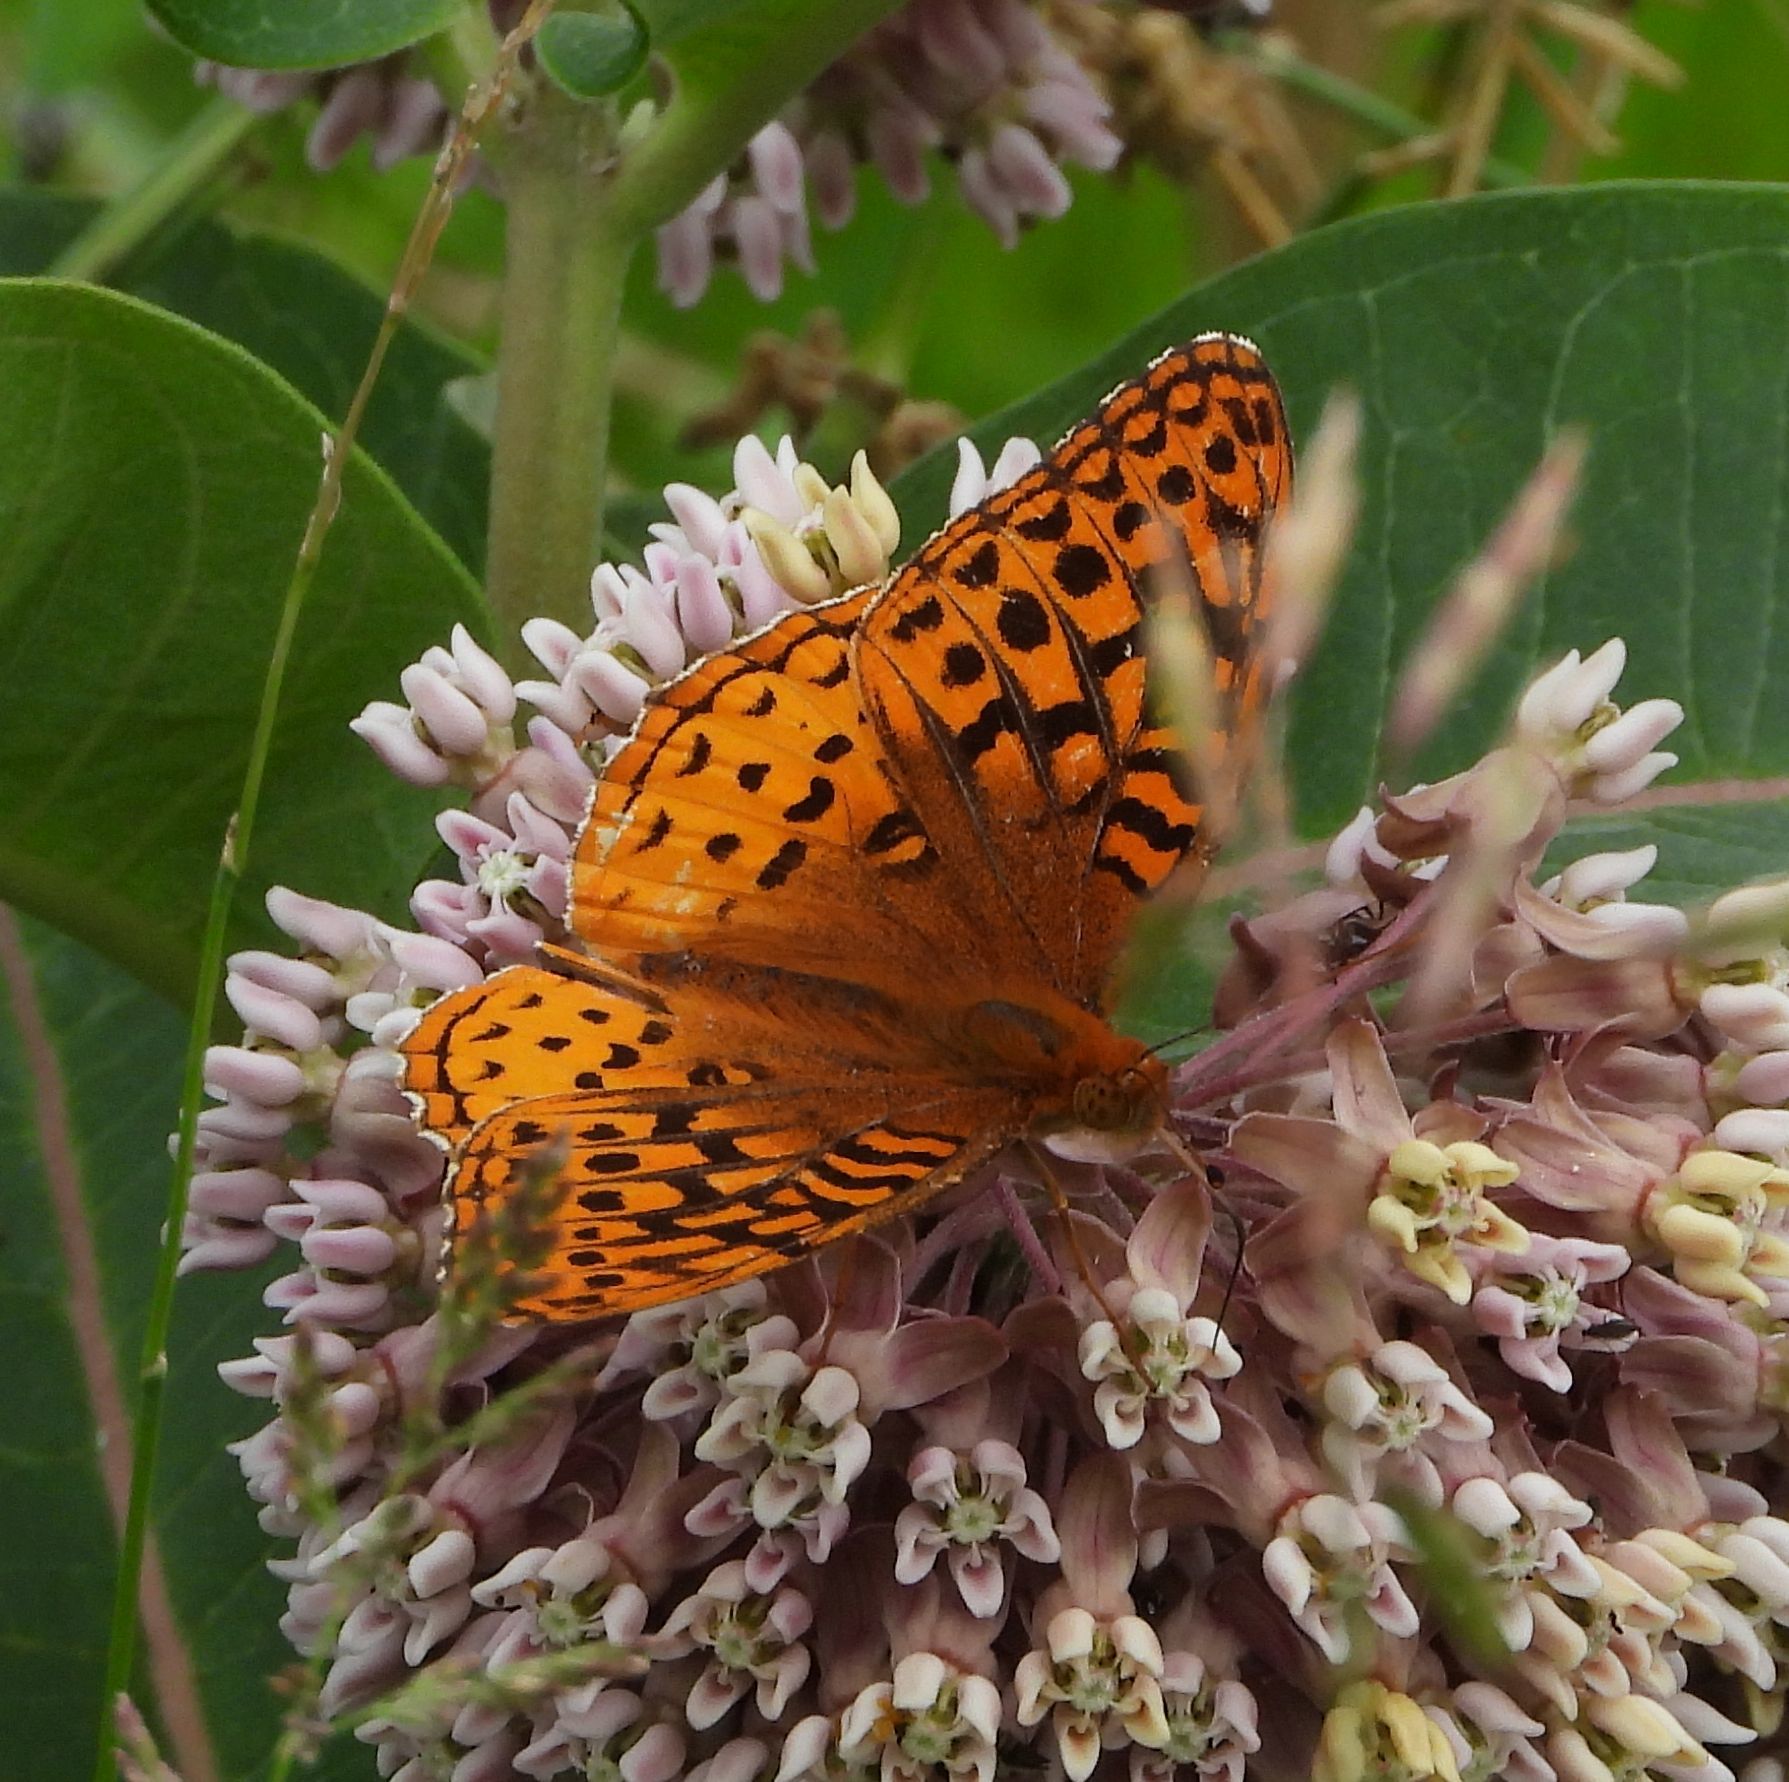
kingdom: Animalia
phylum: Arthropoda
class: Insecta
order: Lepidoptera
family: Nymphalidae
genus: Speyeria
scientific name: Speyeria cybele
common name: Great spangled fritillary
